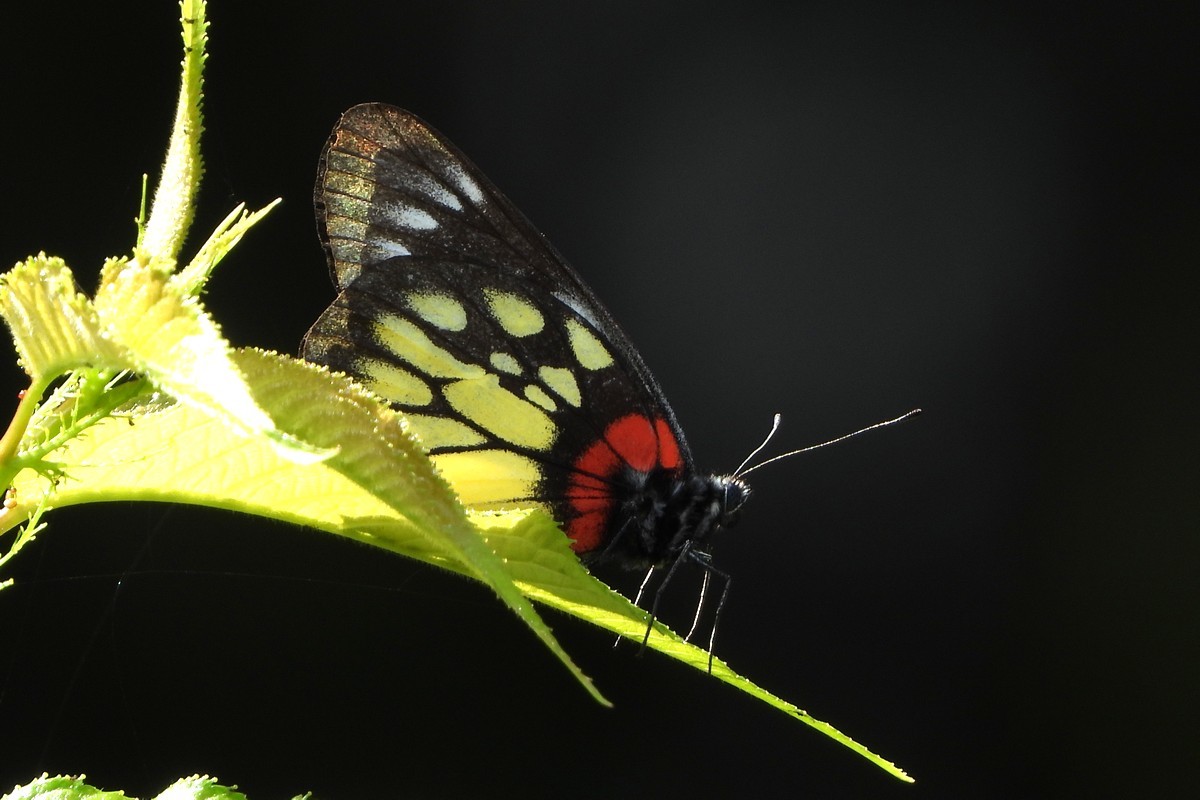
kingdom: Animalia
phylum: Arthropoda
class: Insecta
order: Lepidoptera
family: Pieridae
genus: Delias
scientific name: Delias pasithoe
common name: Red-base jezebel
